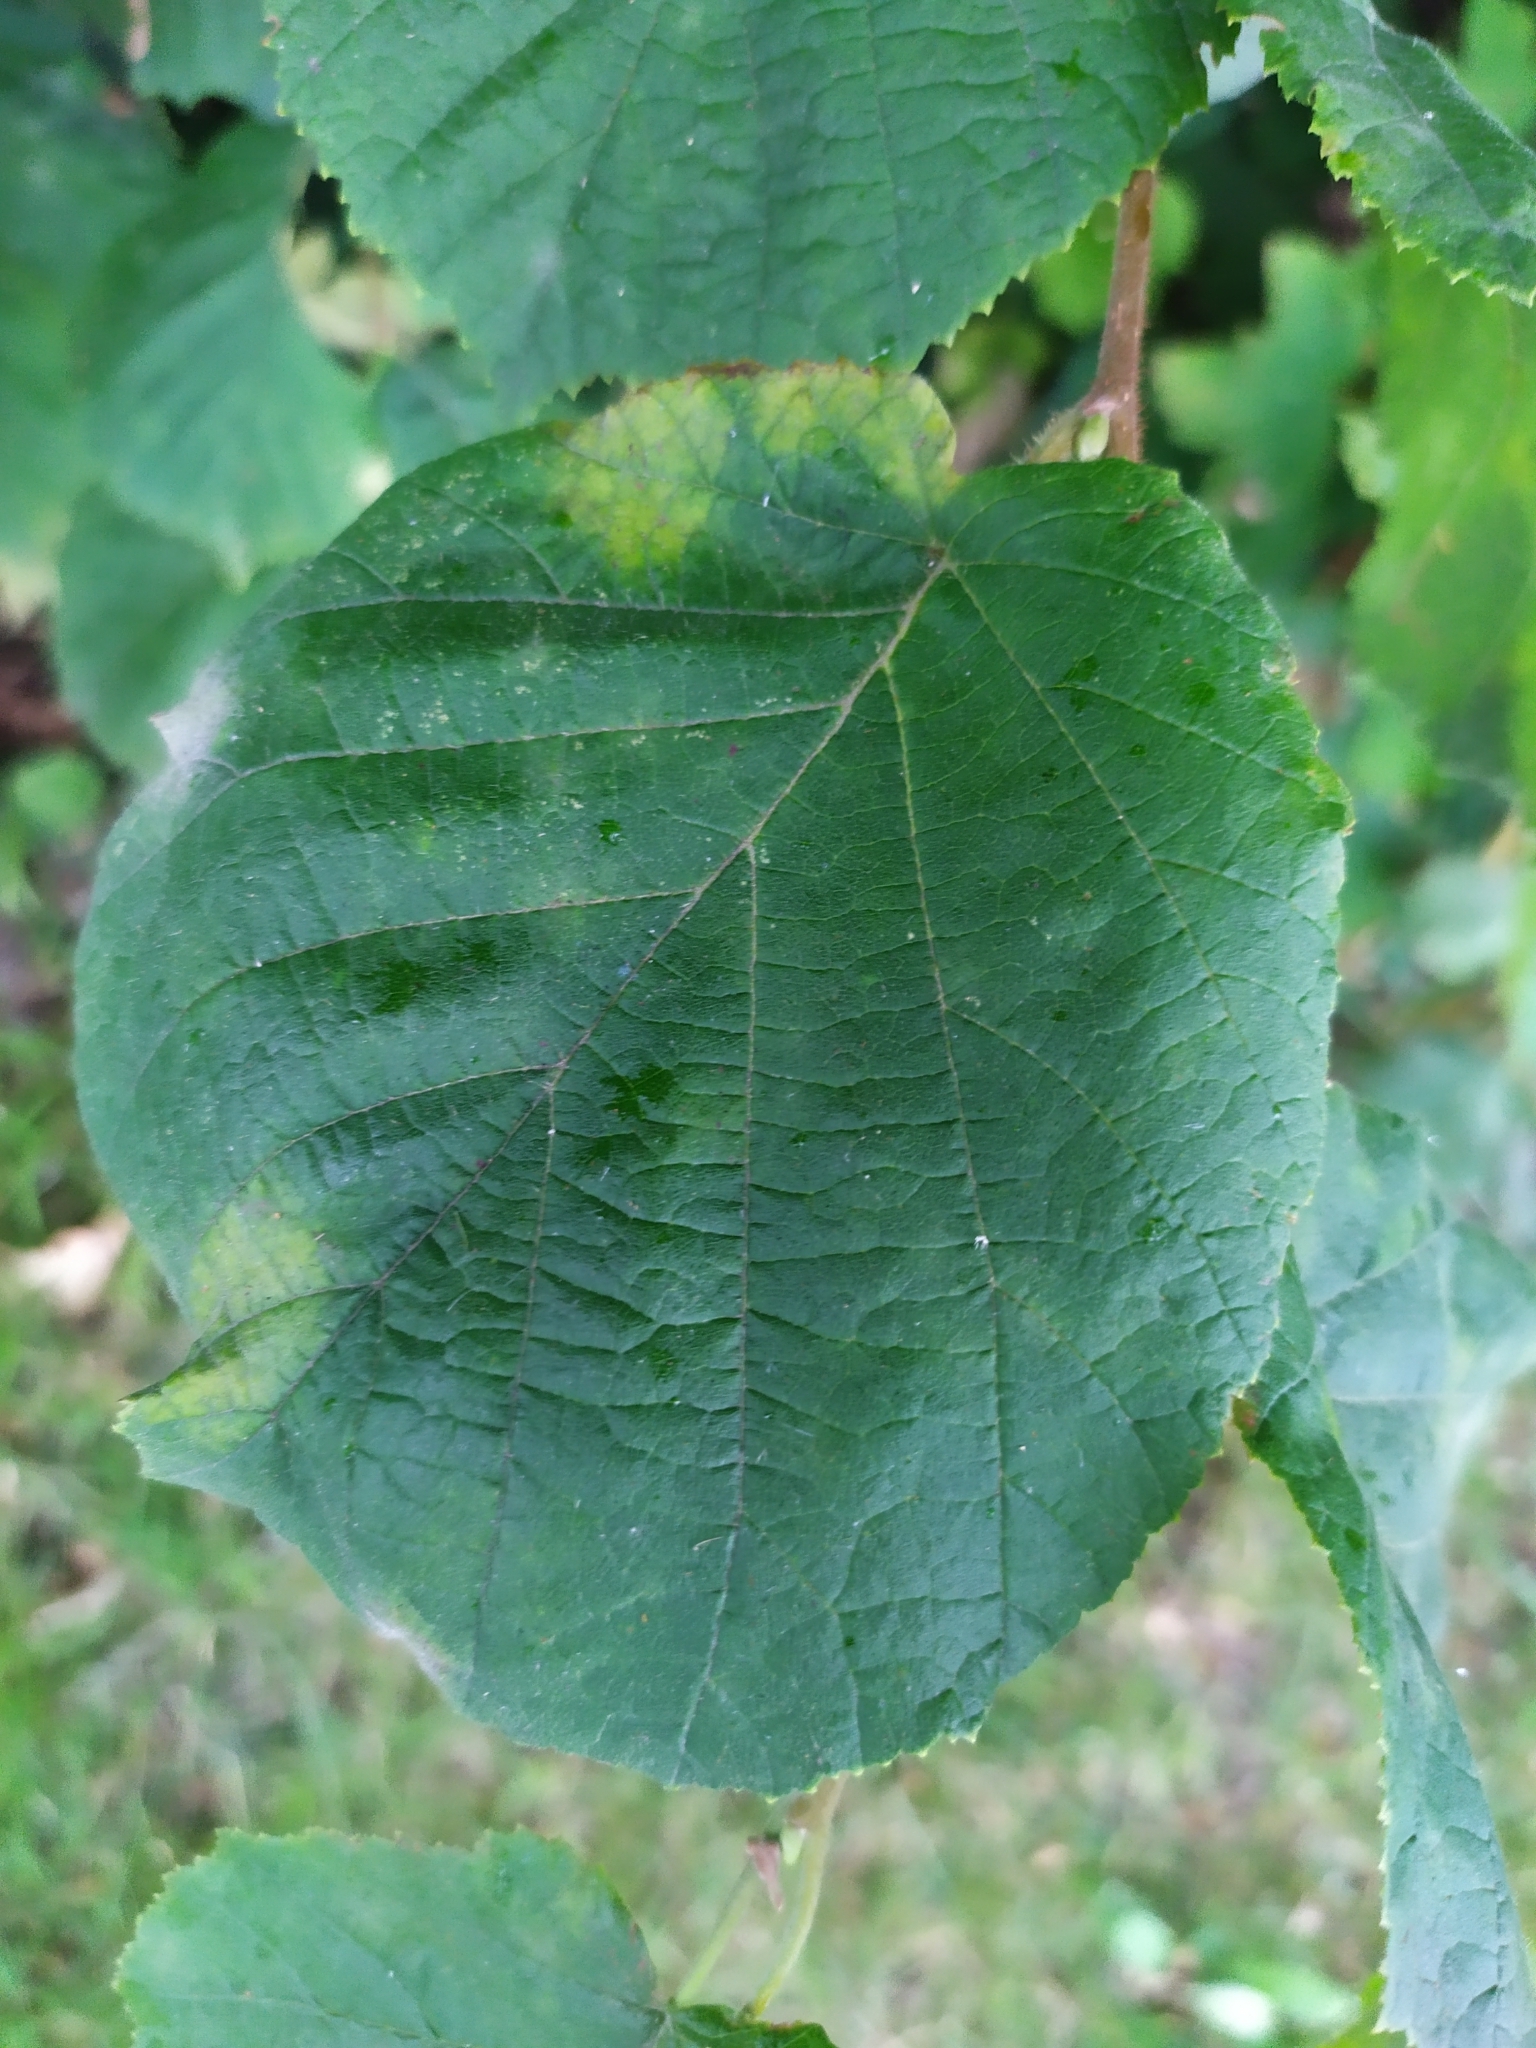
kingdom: Fungi
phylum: Ascomycota
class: Leotiomycetes
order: Helotiales
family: Erysiphaceae
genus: Erysiphe
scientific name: Erysiphe corylacearum
